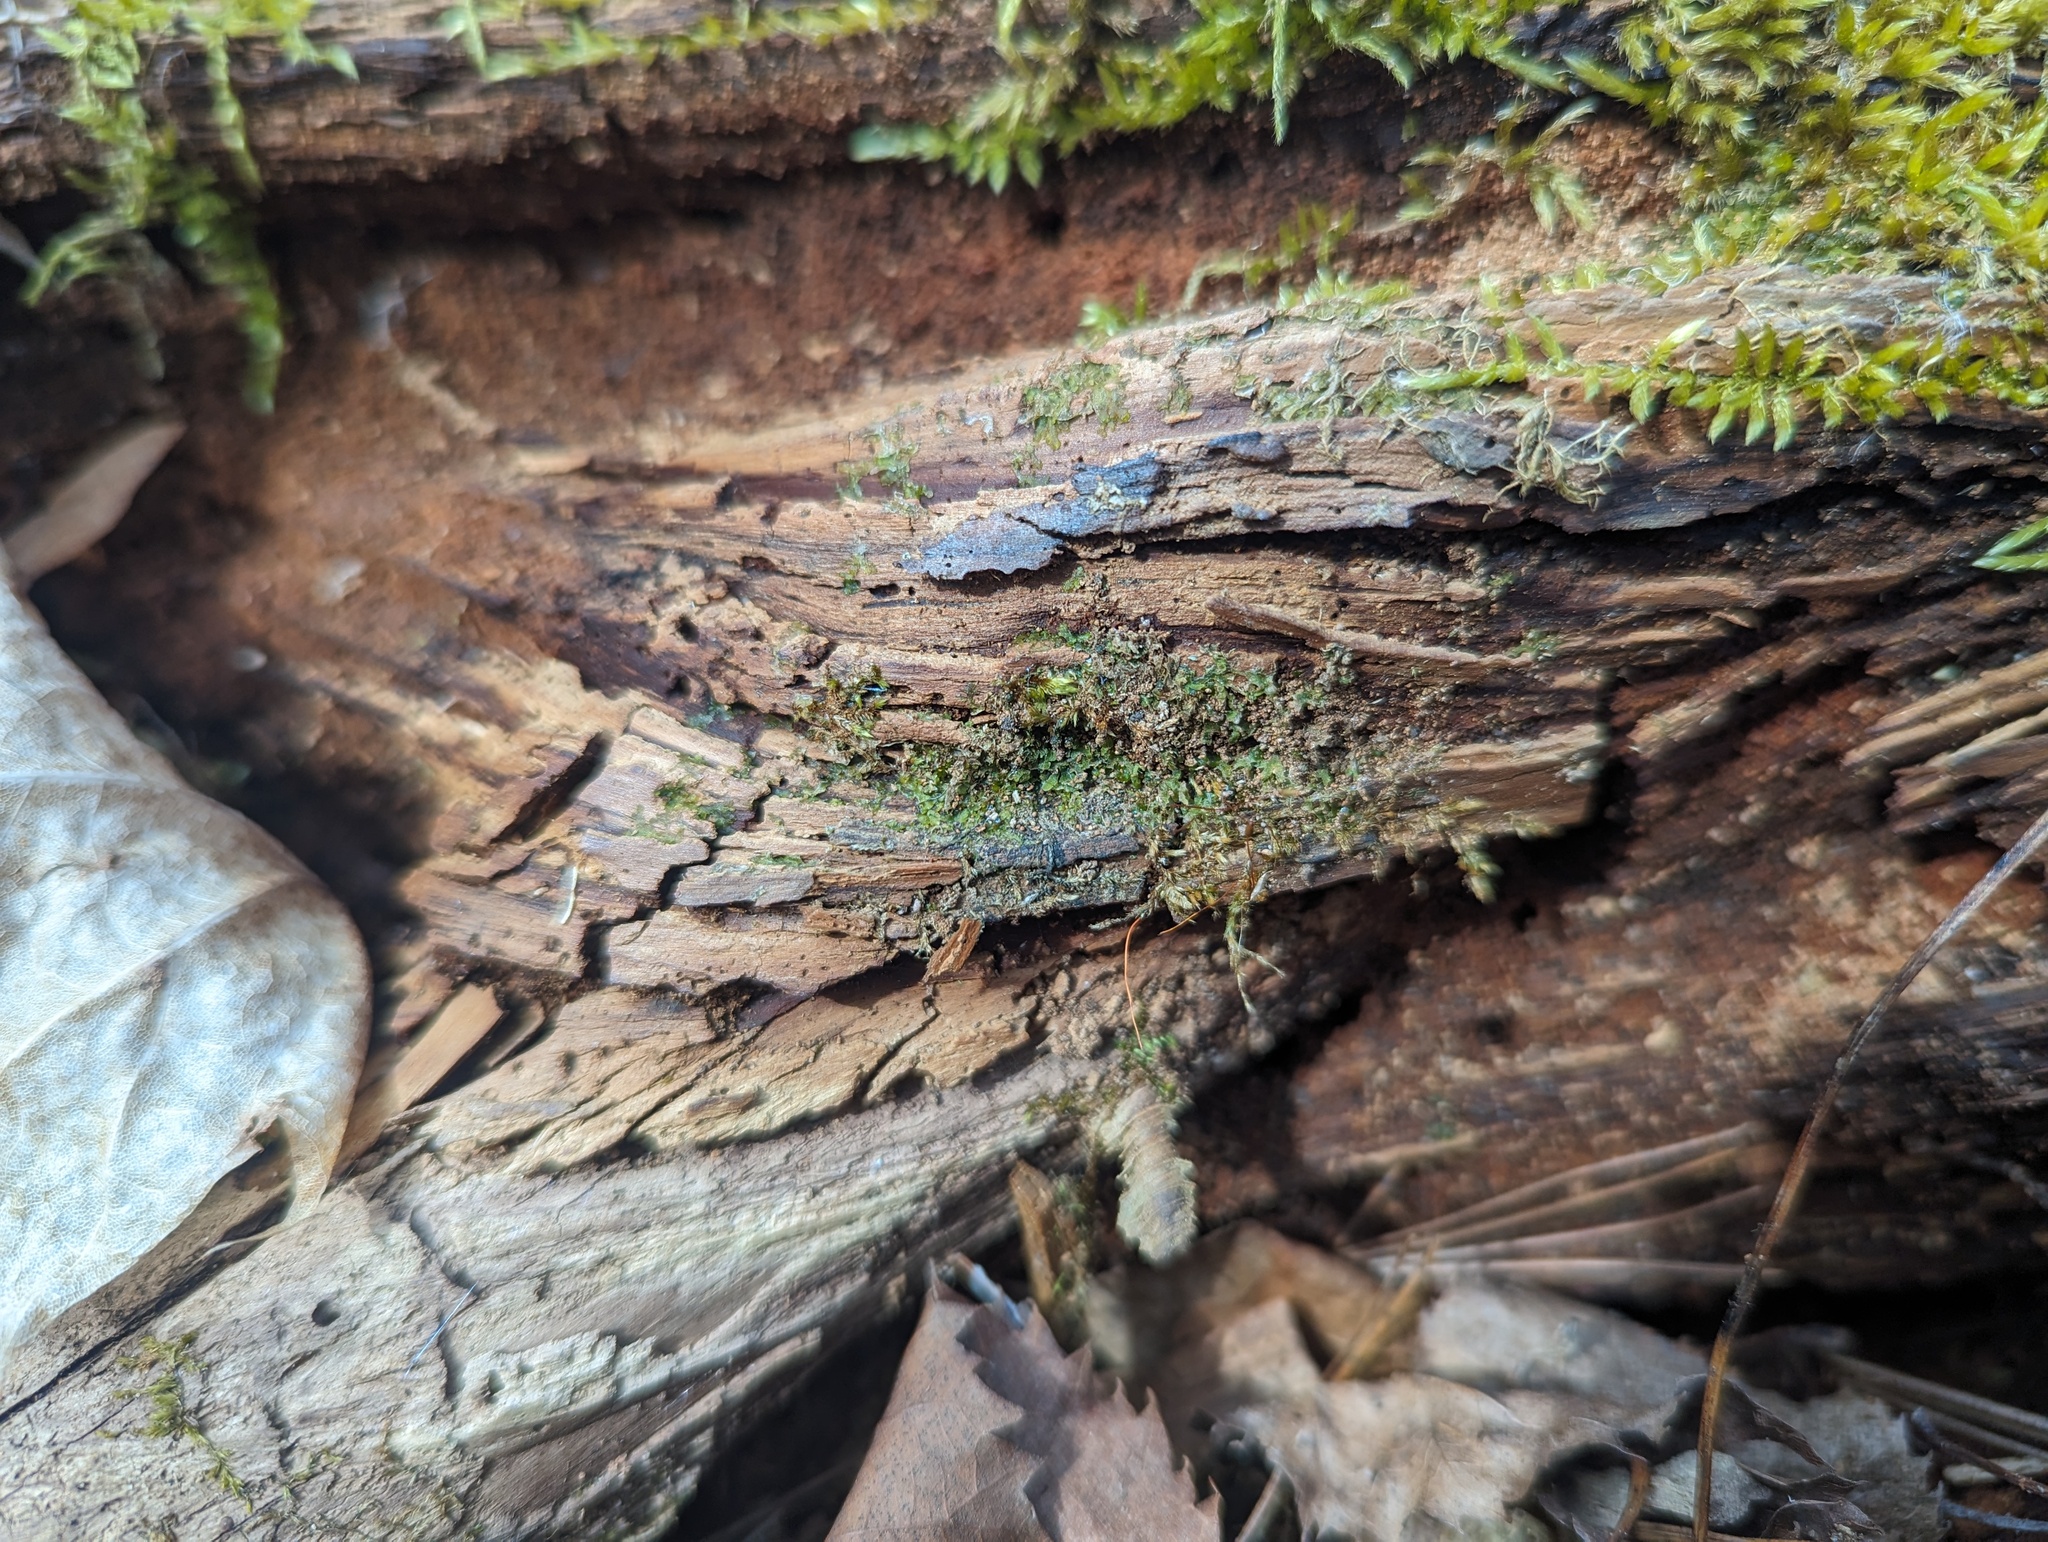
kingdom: Plantae
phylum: Marchantiophyta
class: Jungermanniopsida
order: Metzgeriales
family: Aneuraceae
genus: Riccardia
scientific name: Riccardia palmata
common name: Palmate germanderwort
